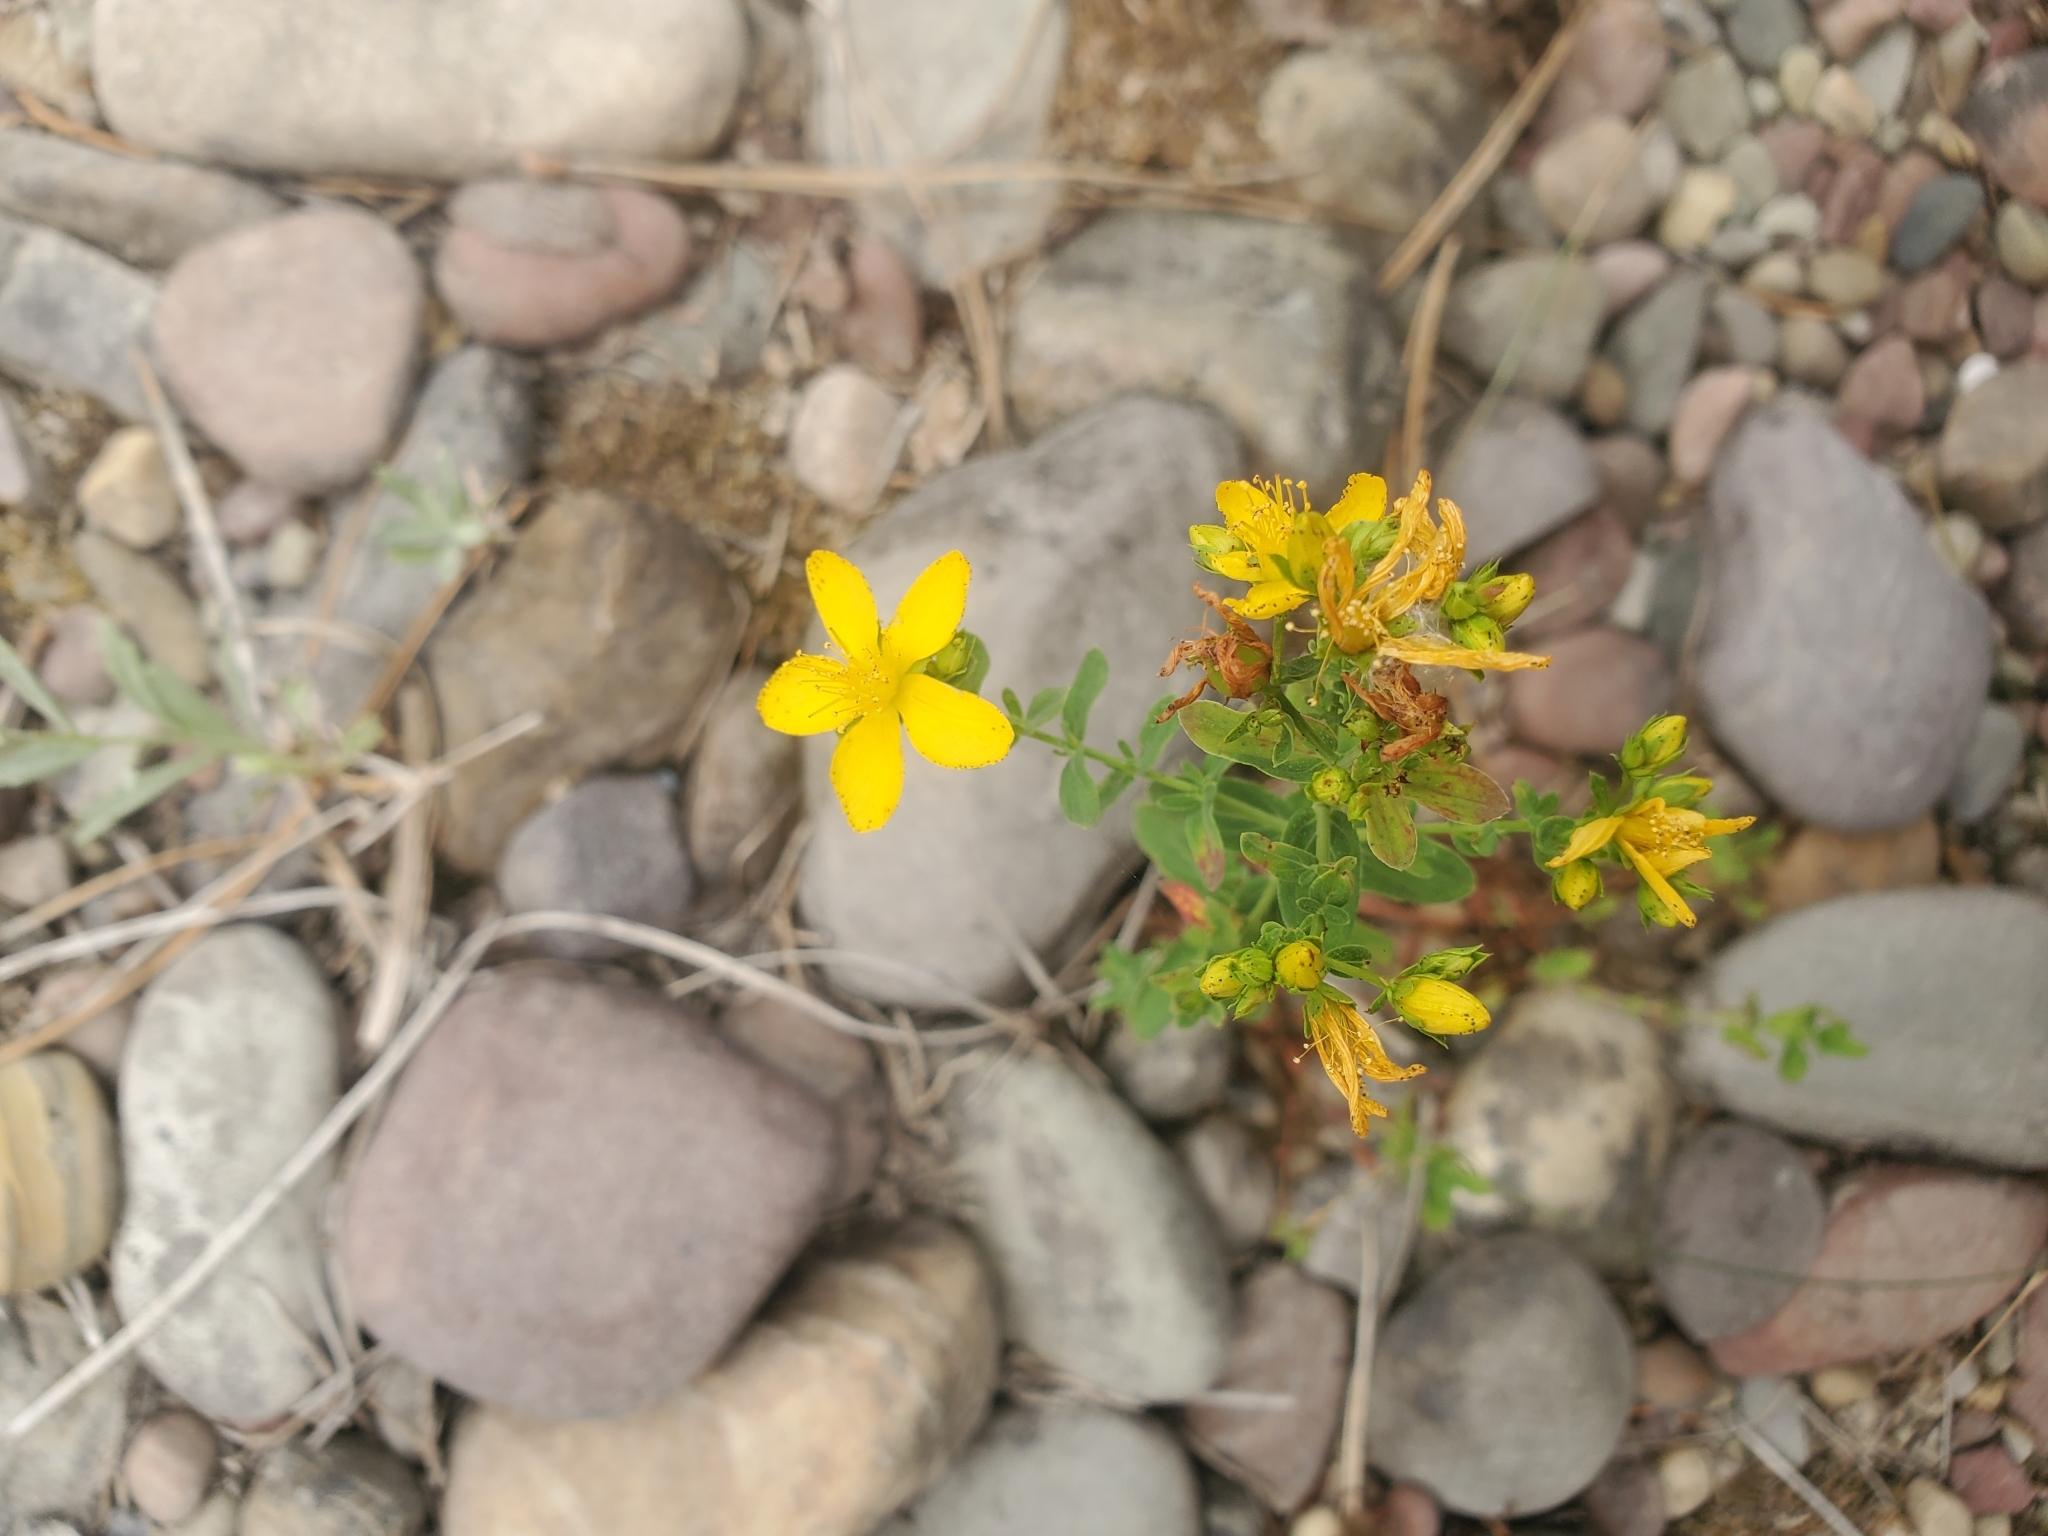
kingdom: Plantae
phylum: Tracheophyta
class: Magnoliopsida
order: Malpighiales
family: Hypericaceae
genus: Hypericum
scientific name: Hypericum perforatum
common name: Common st. johnswort
